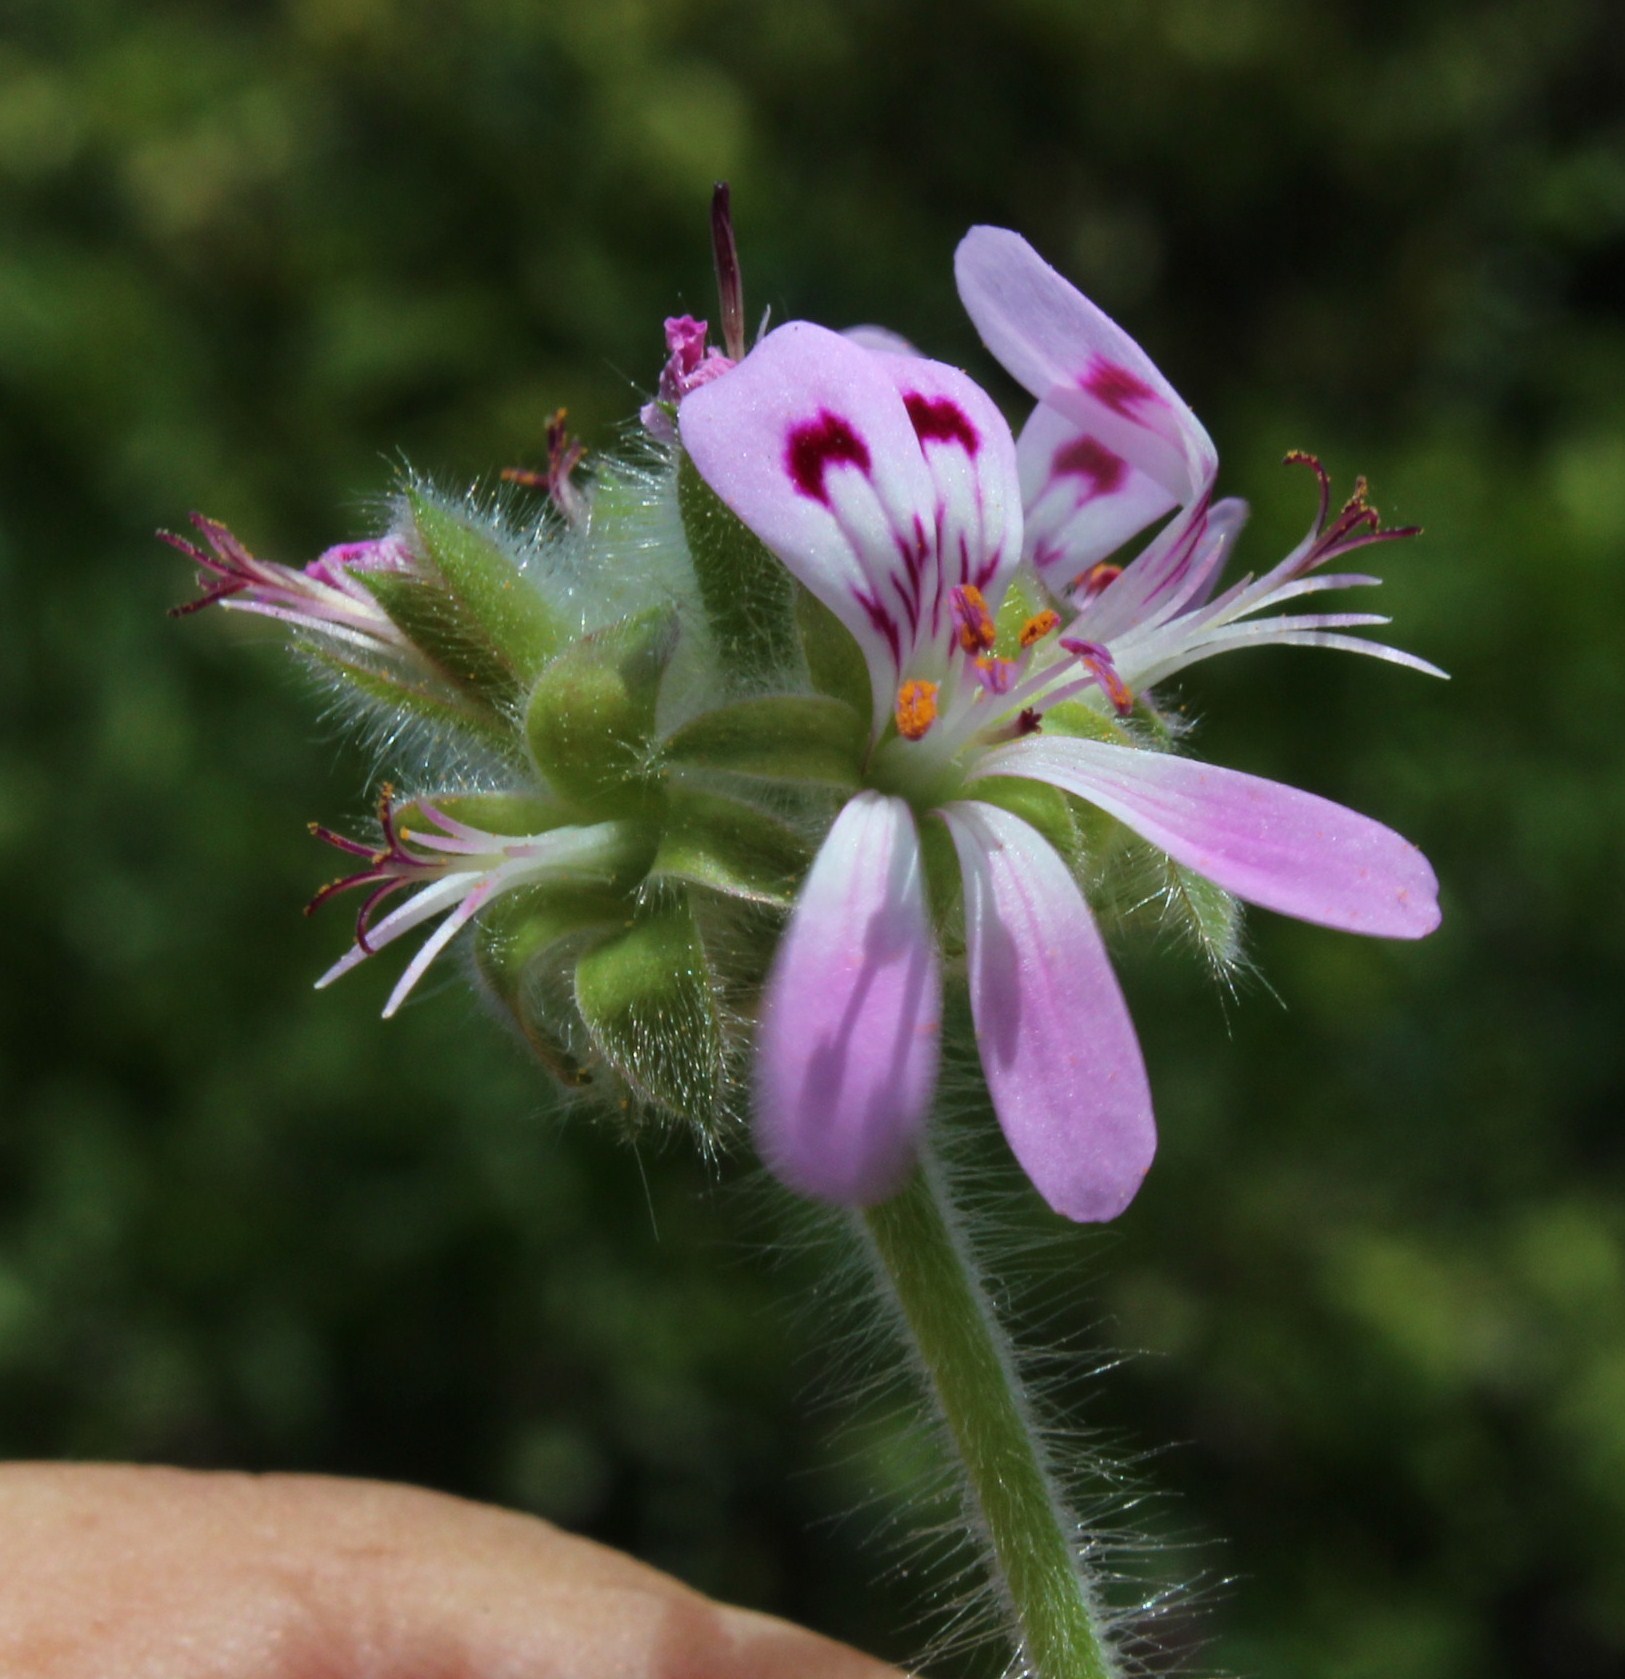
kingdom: Plantae
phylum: Tracheophyta
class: Magnoliopsida
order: Geraniales
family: Geraniaceae
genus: Pelargonium
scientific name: Pelargonium capitatum
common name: Rose scented geranium
